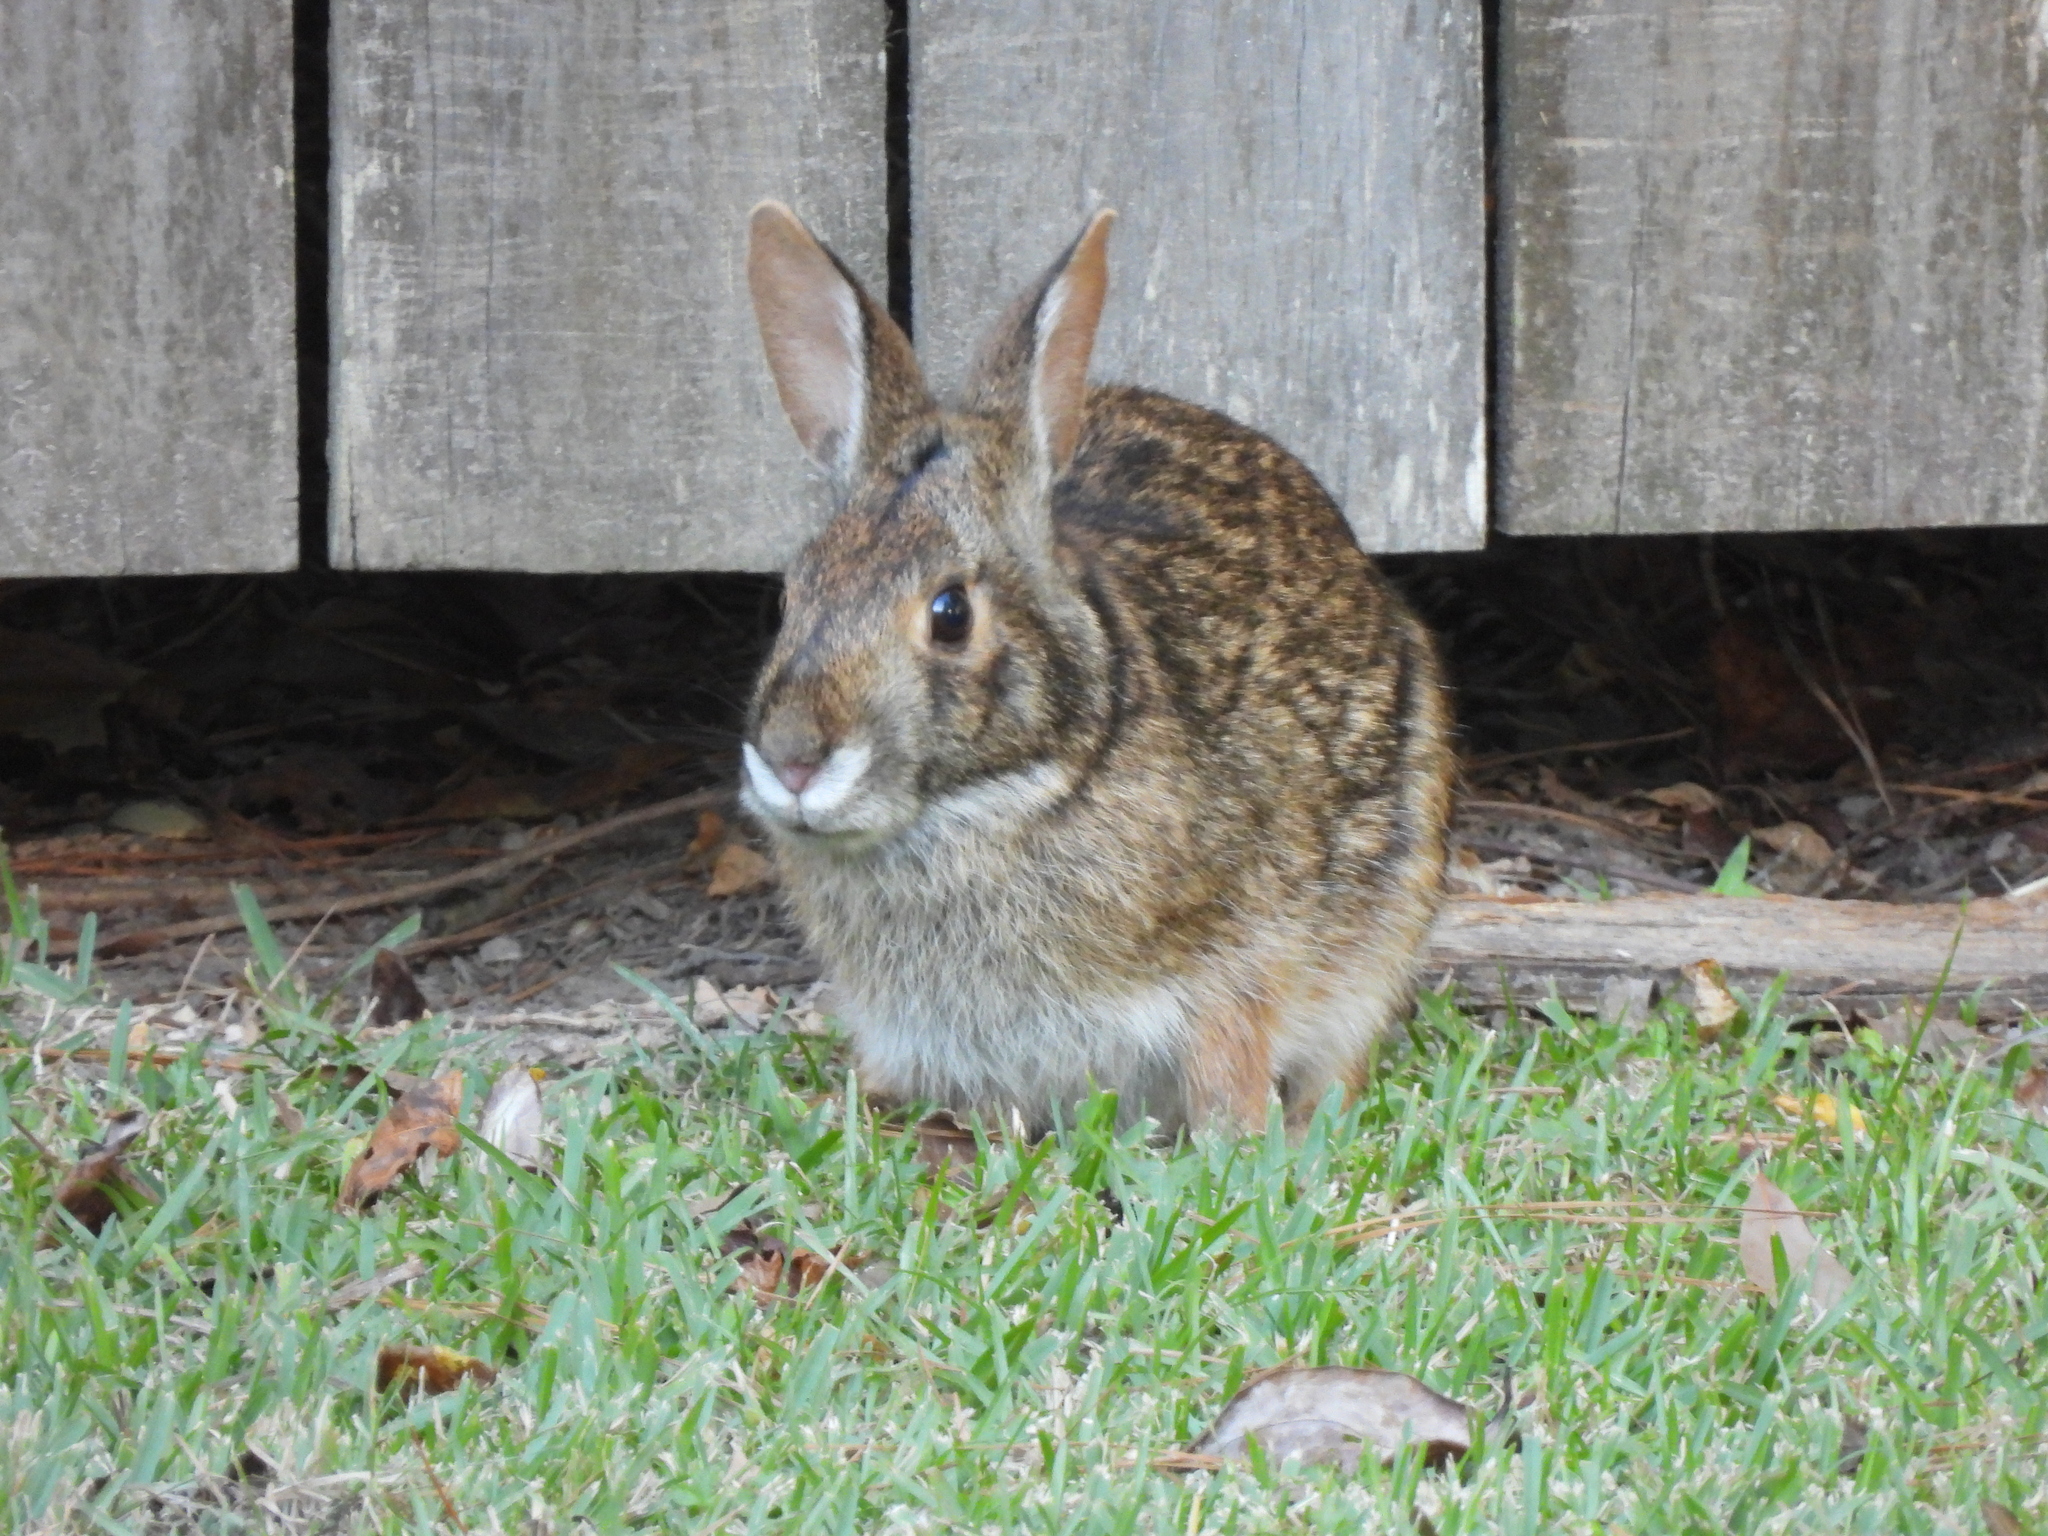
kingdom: Animalia
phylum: Chordata
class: Mammalia
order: Lagomorpha
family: Leporidae
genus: Sylvilagus
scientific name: Sylvilagus aquaticus
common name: Swamp rabbit
